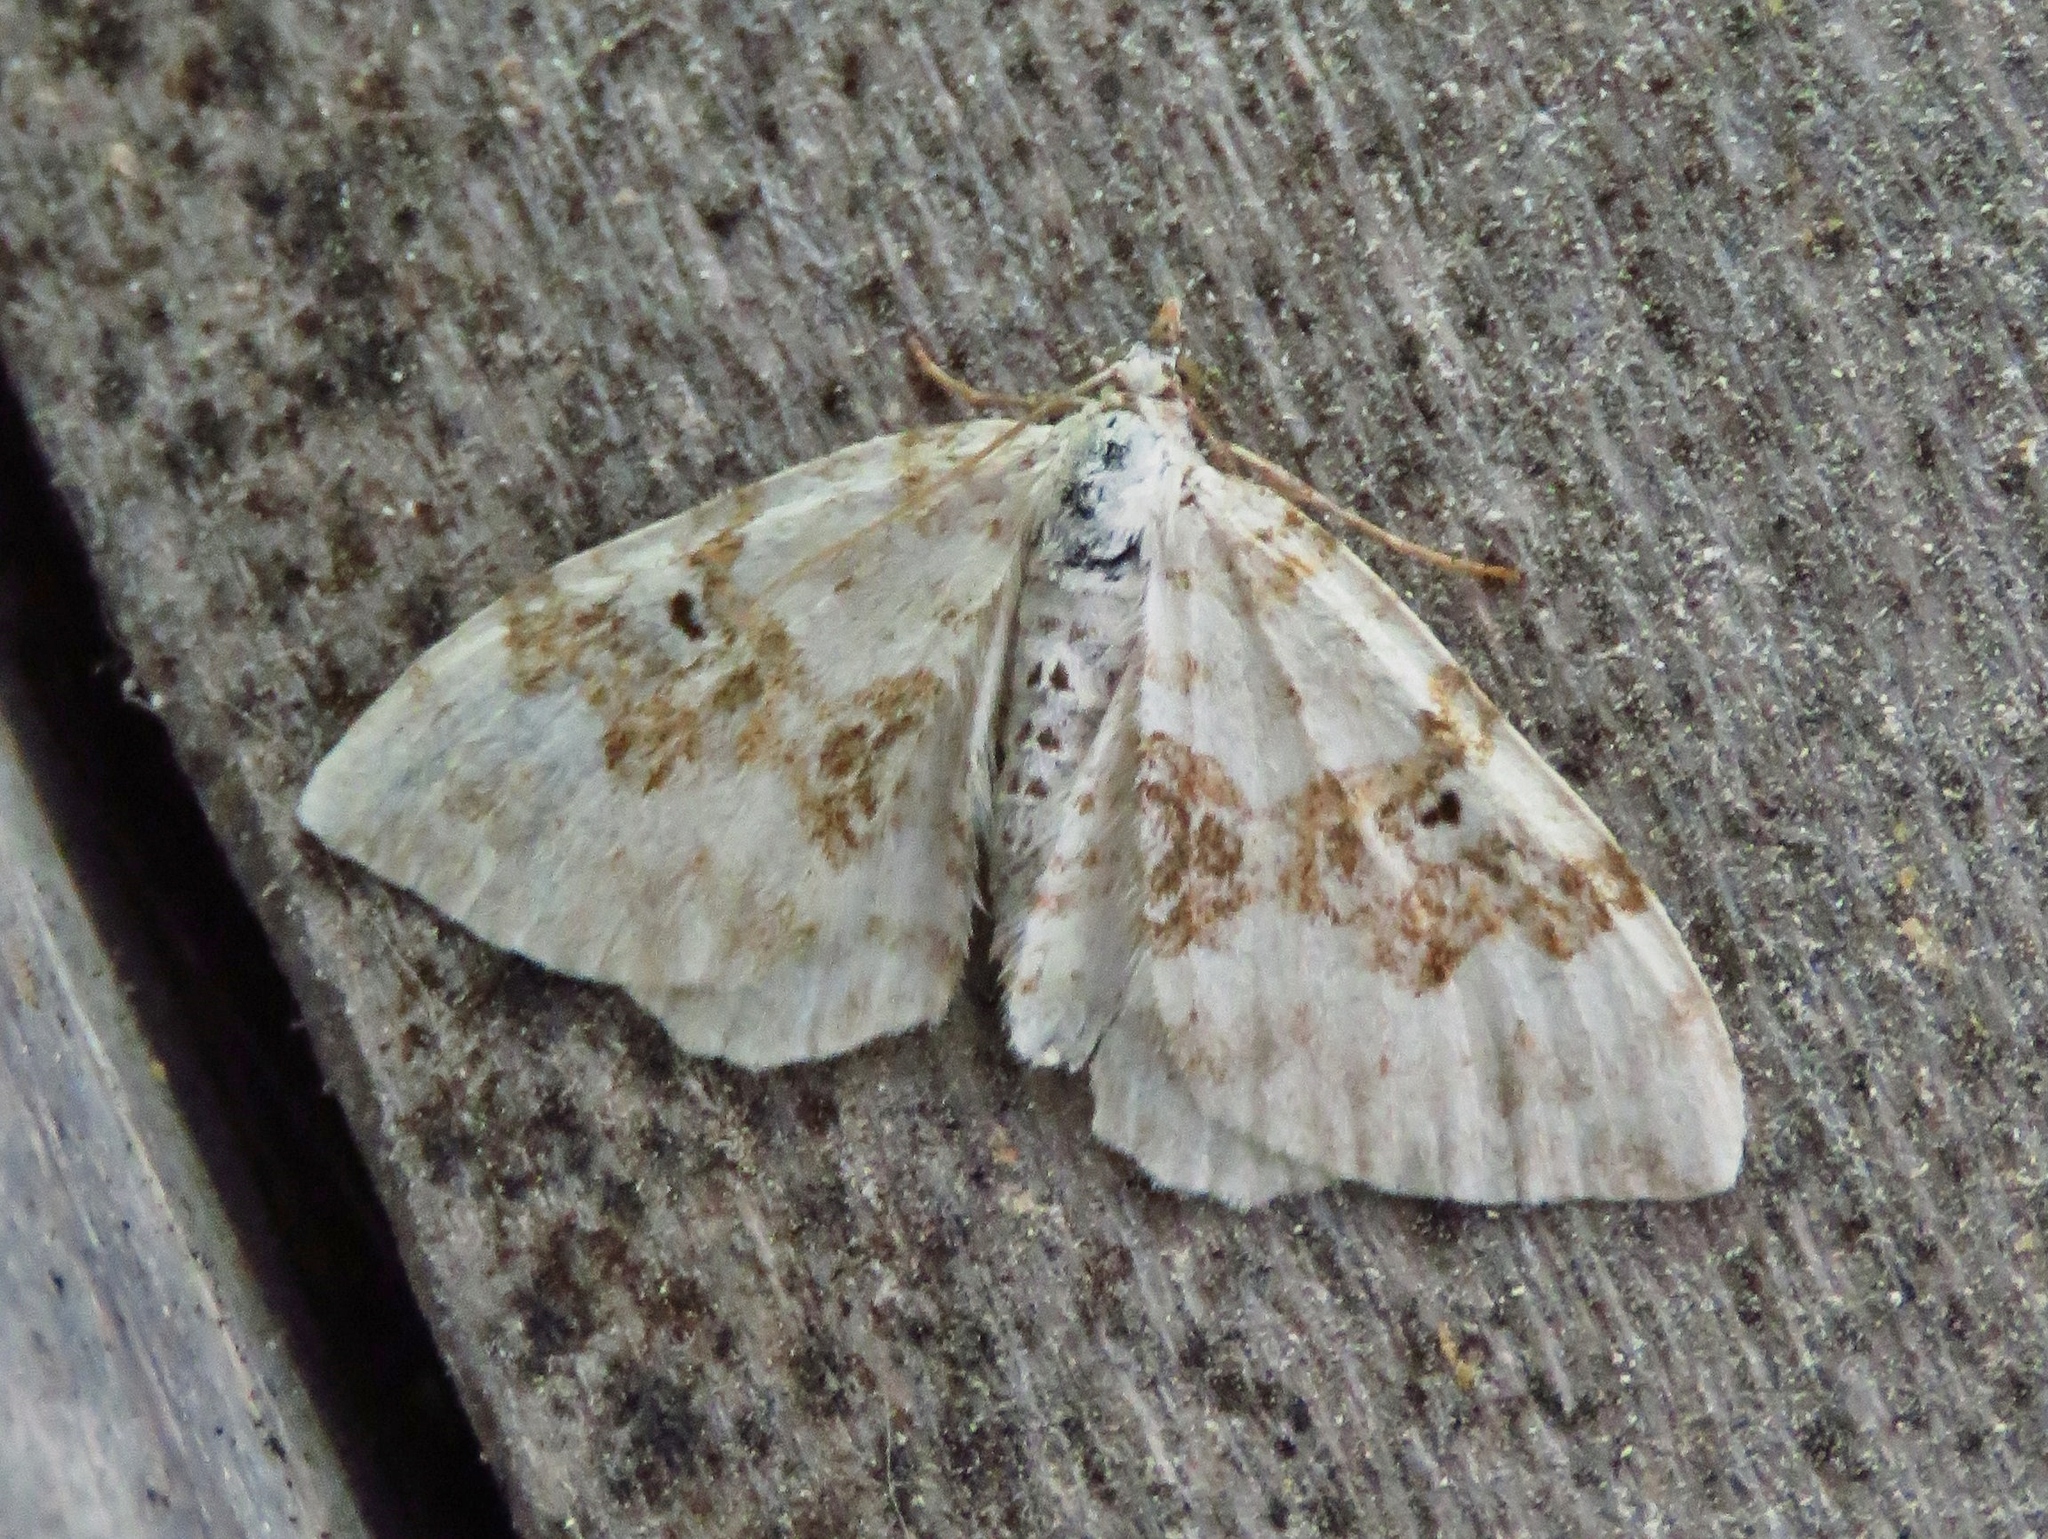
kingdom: Animalia
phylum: Arthropoda
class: Insecta
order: Lepidoptera
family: Geometridae
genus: Xanthorhoe
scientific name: Xanthorhoe montanata
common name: Silver-ground carpet
